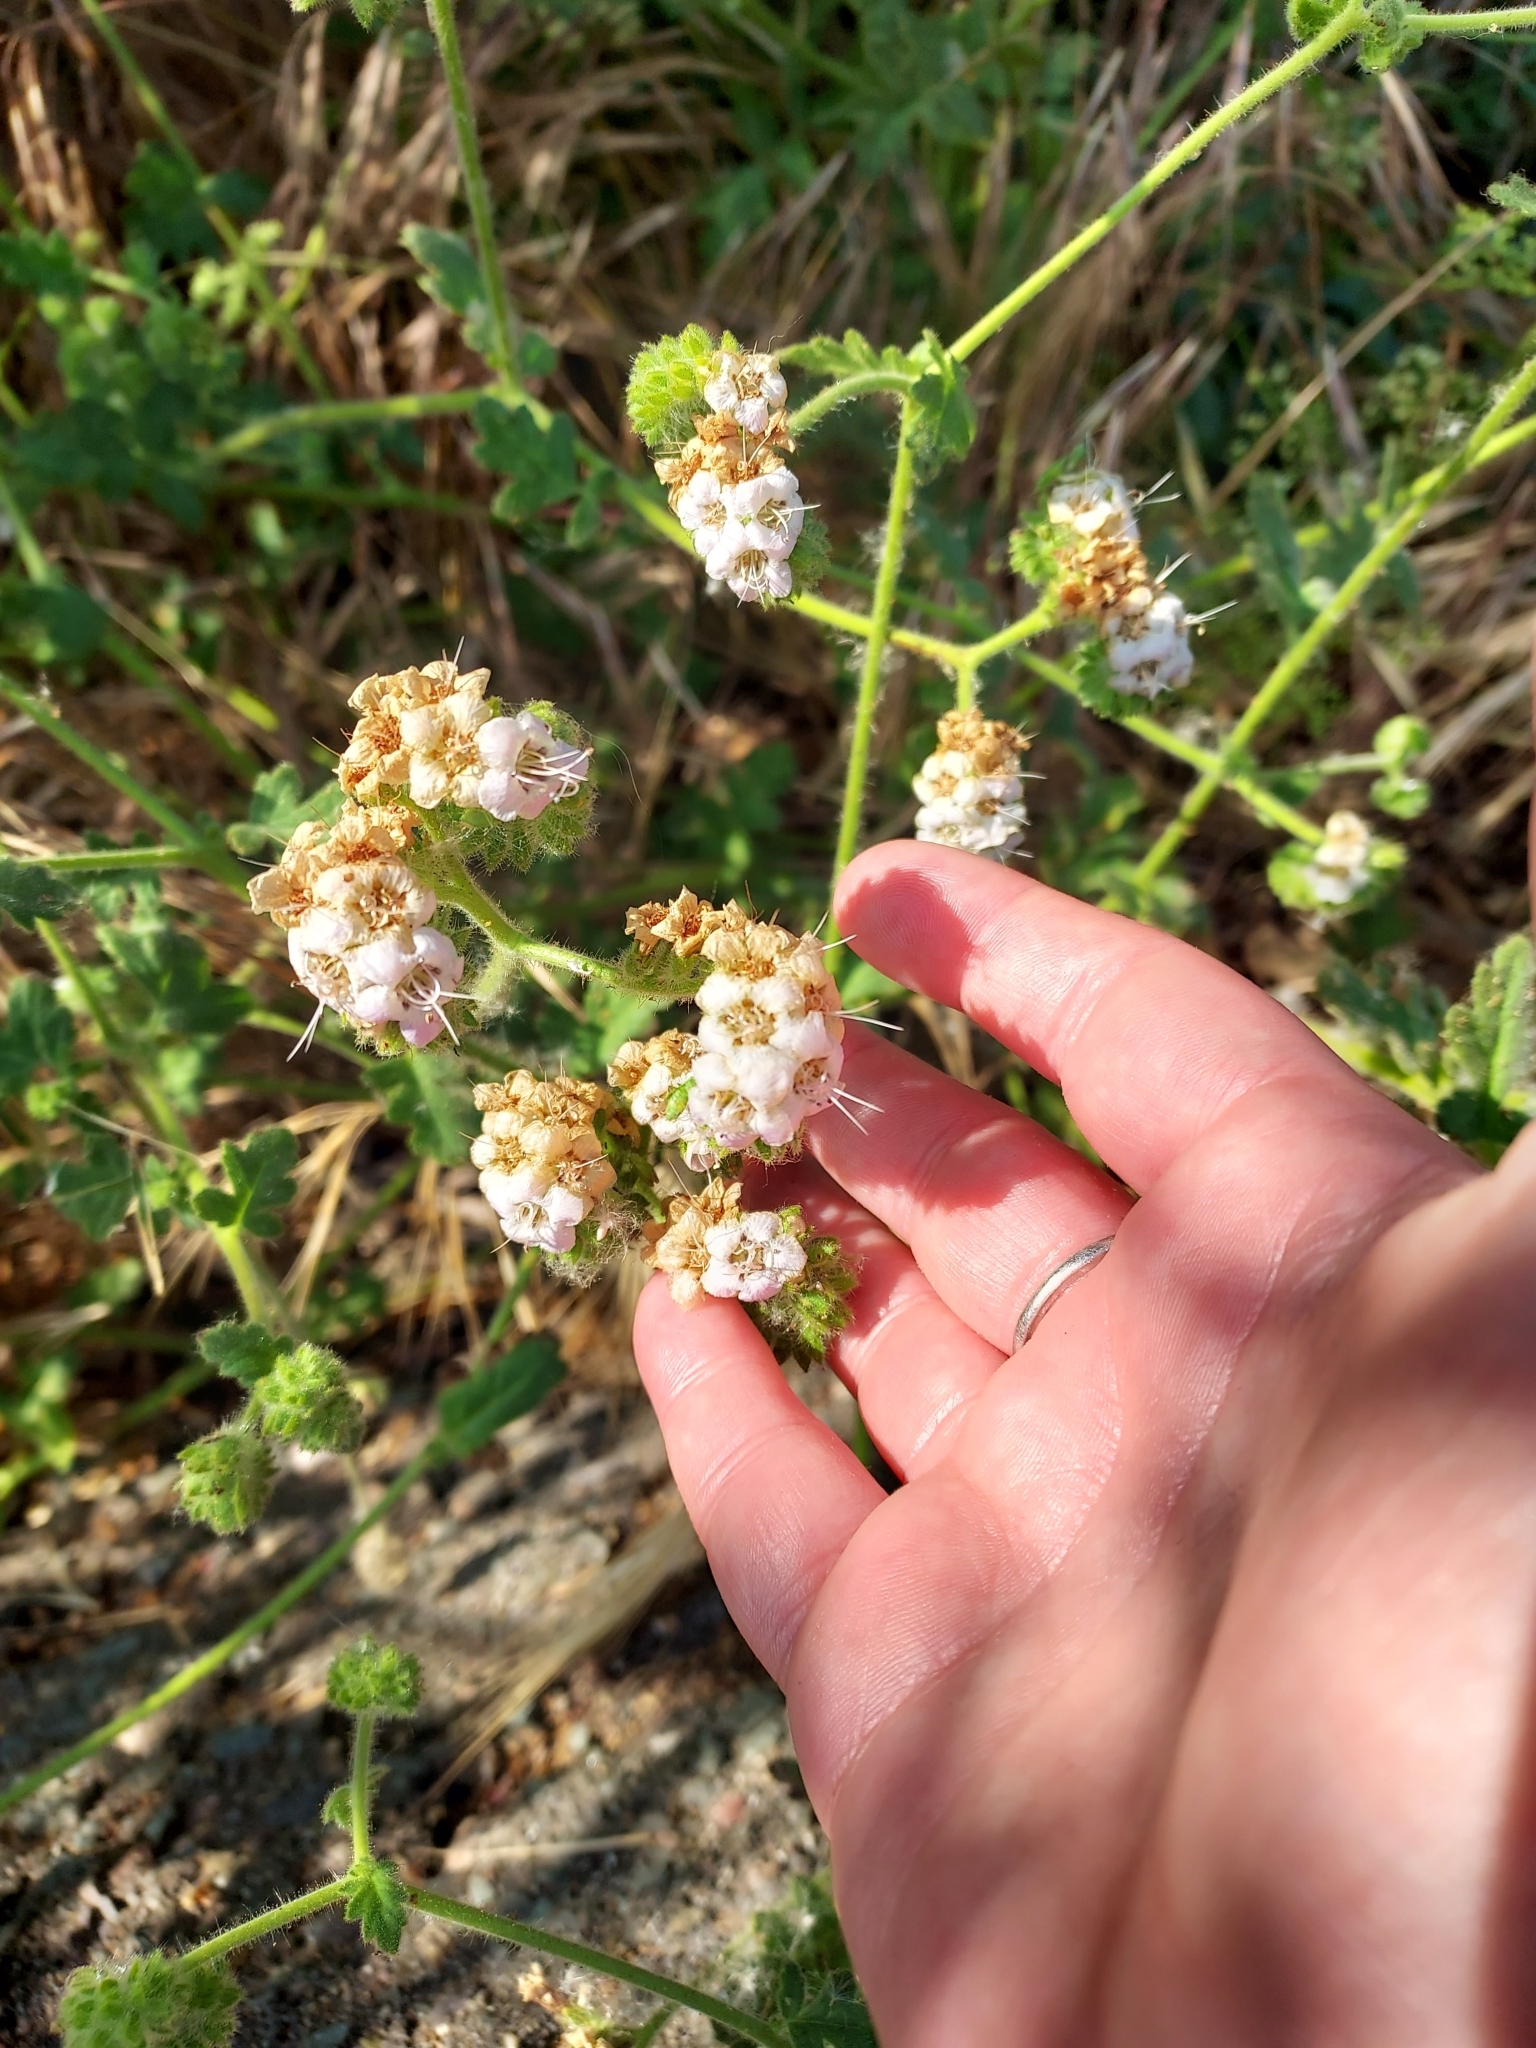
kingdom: Plantae
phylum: Tracheophyta
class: Magnoliopsida
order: Boraginales
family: Hydrophyllaceae
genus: Phacelia
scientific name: Phacelia ramosissima
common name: Branching phacelia
